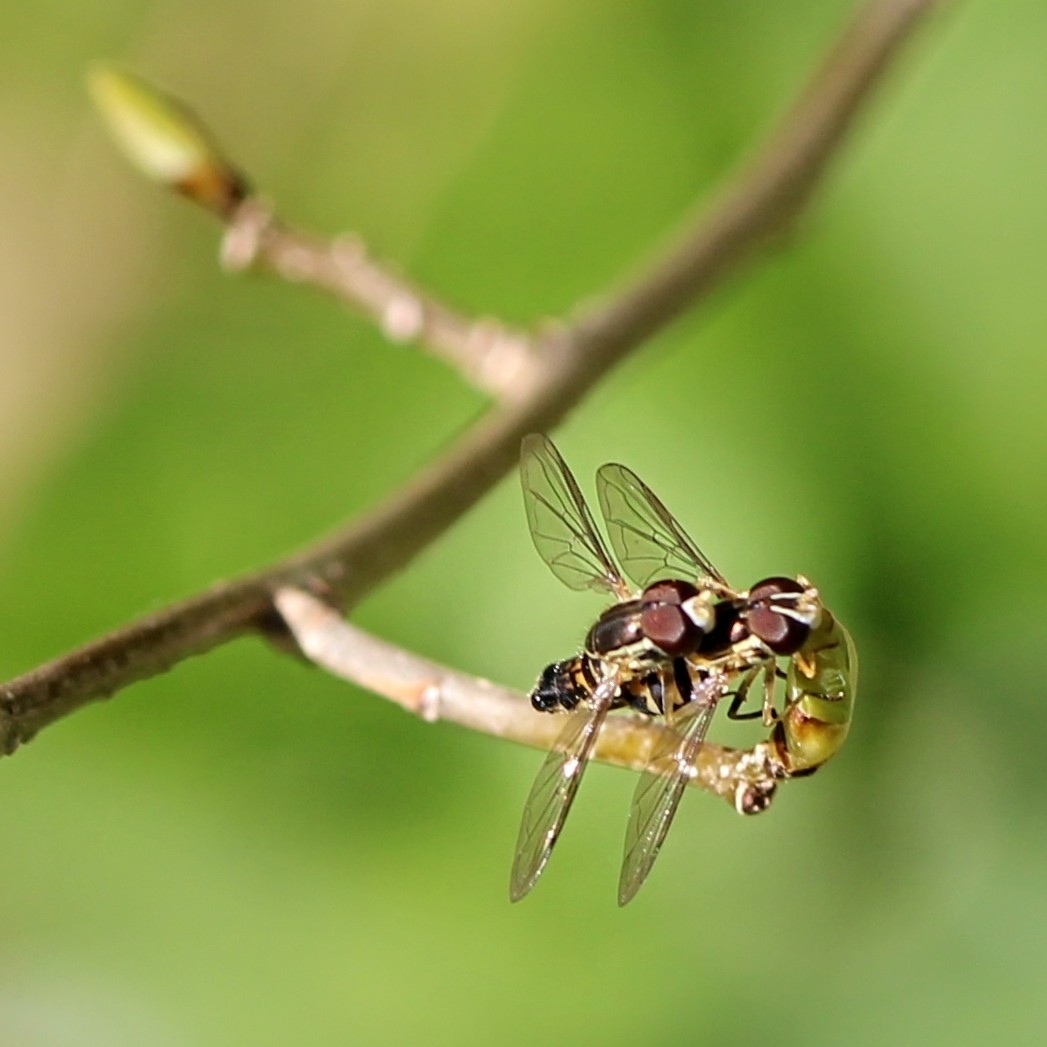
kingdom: Animalia
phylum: Arthropoda
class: Insecta
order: Diptera
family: Syrphidae
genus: Toxomerus
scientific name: Toxomerus geminatus
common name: Eastern calligrapher
